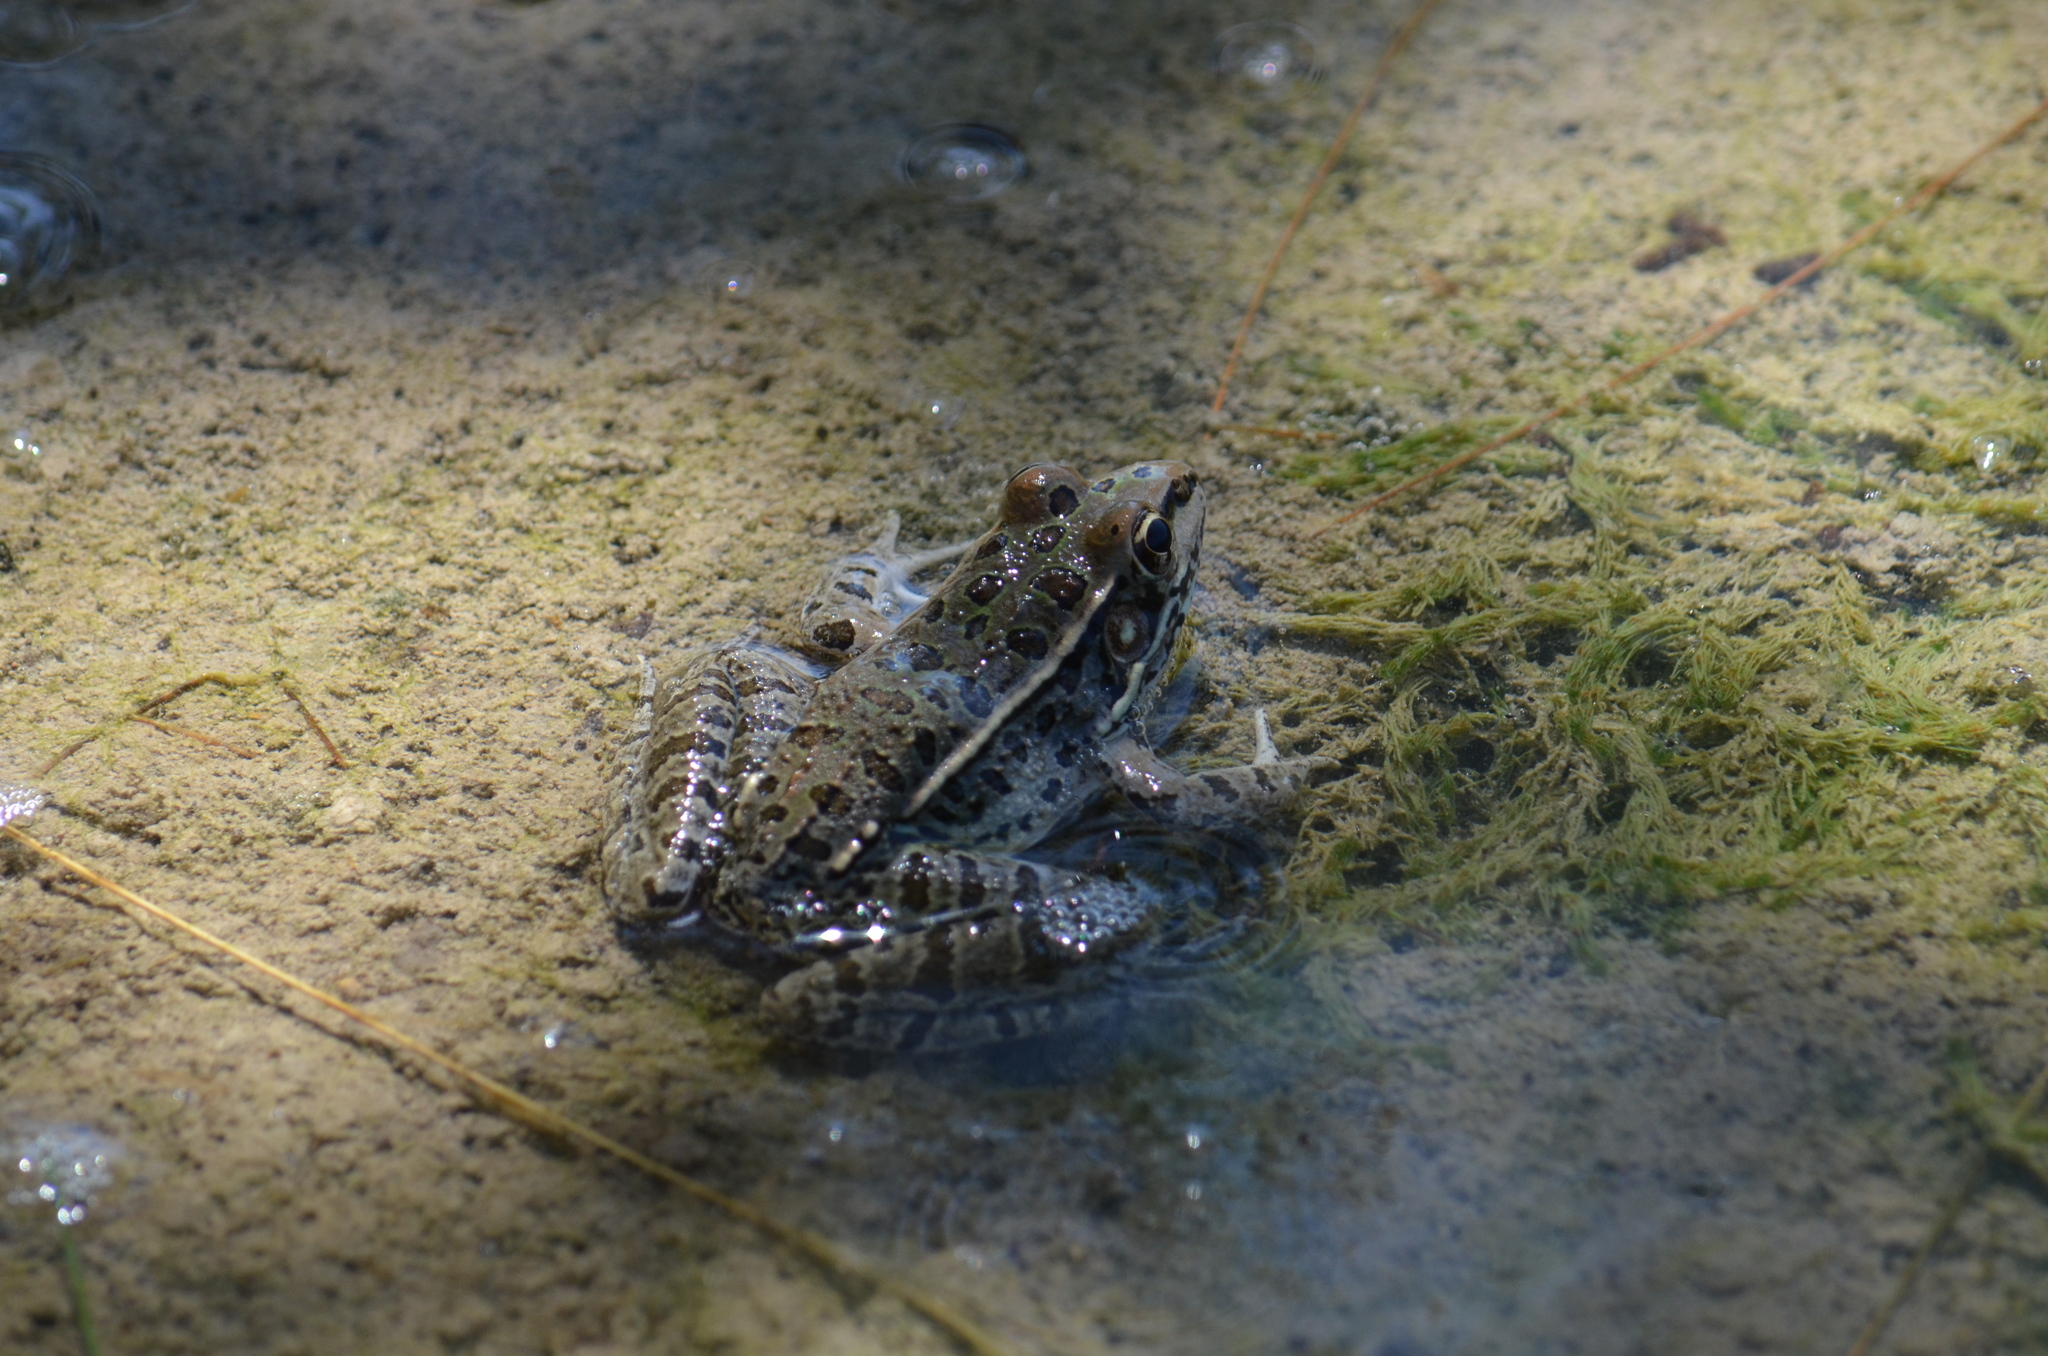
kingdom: Animalia
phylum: Chordata
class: Amphibia
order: Anura
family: Ranidae
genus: Lithobates
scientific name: Lithobates berlandieri
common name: Rio grande leopard frog
